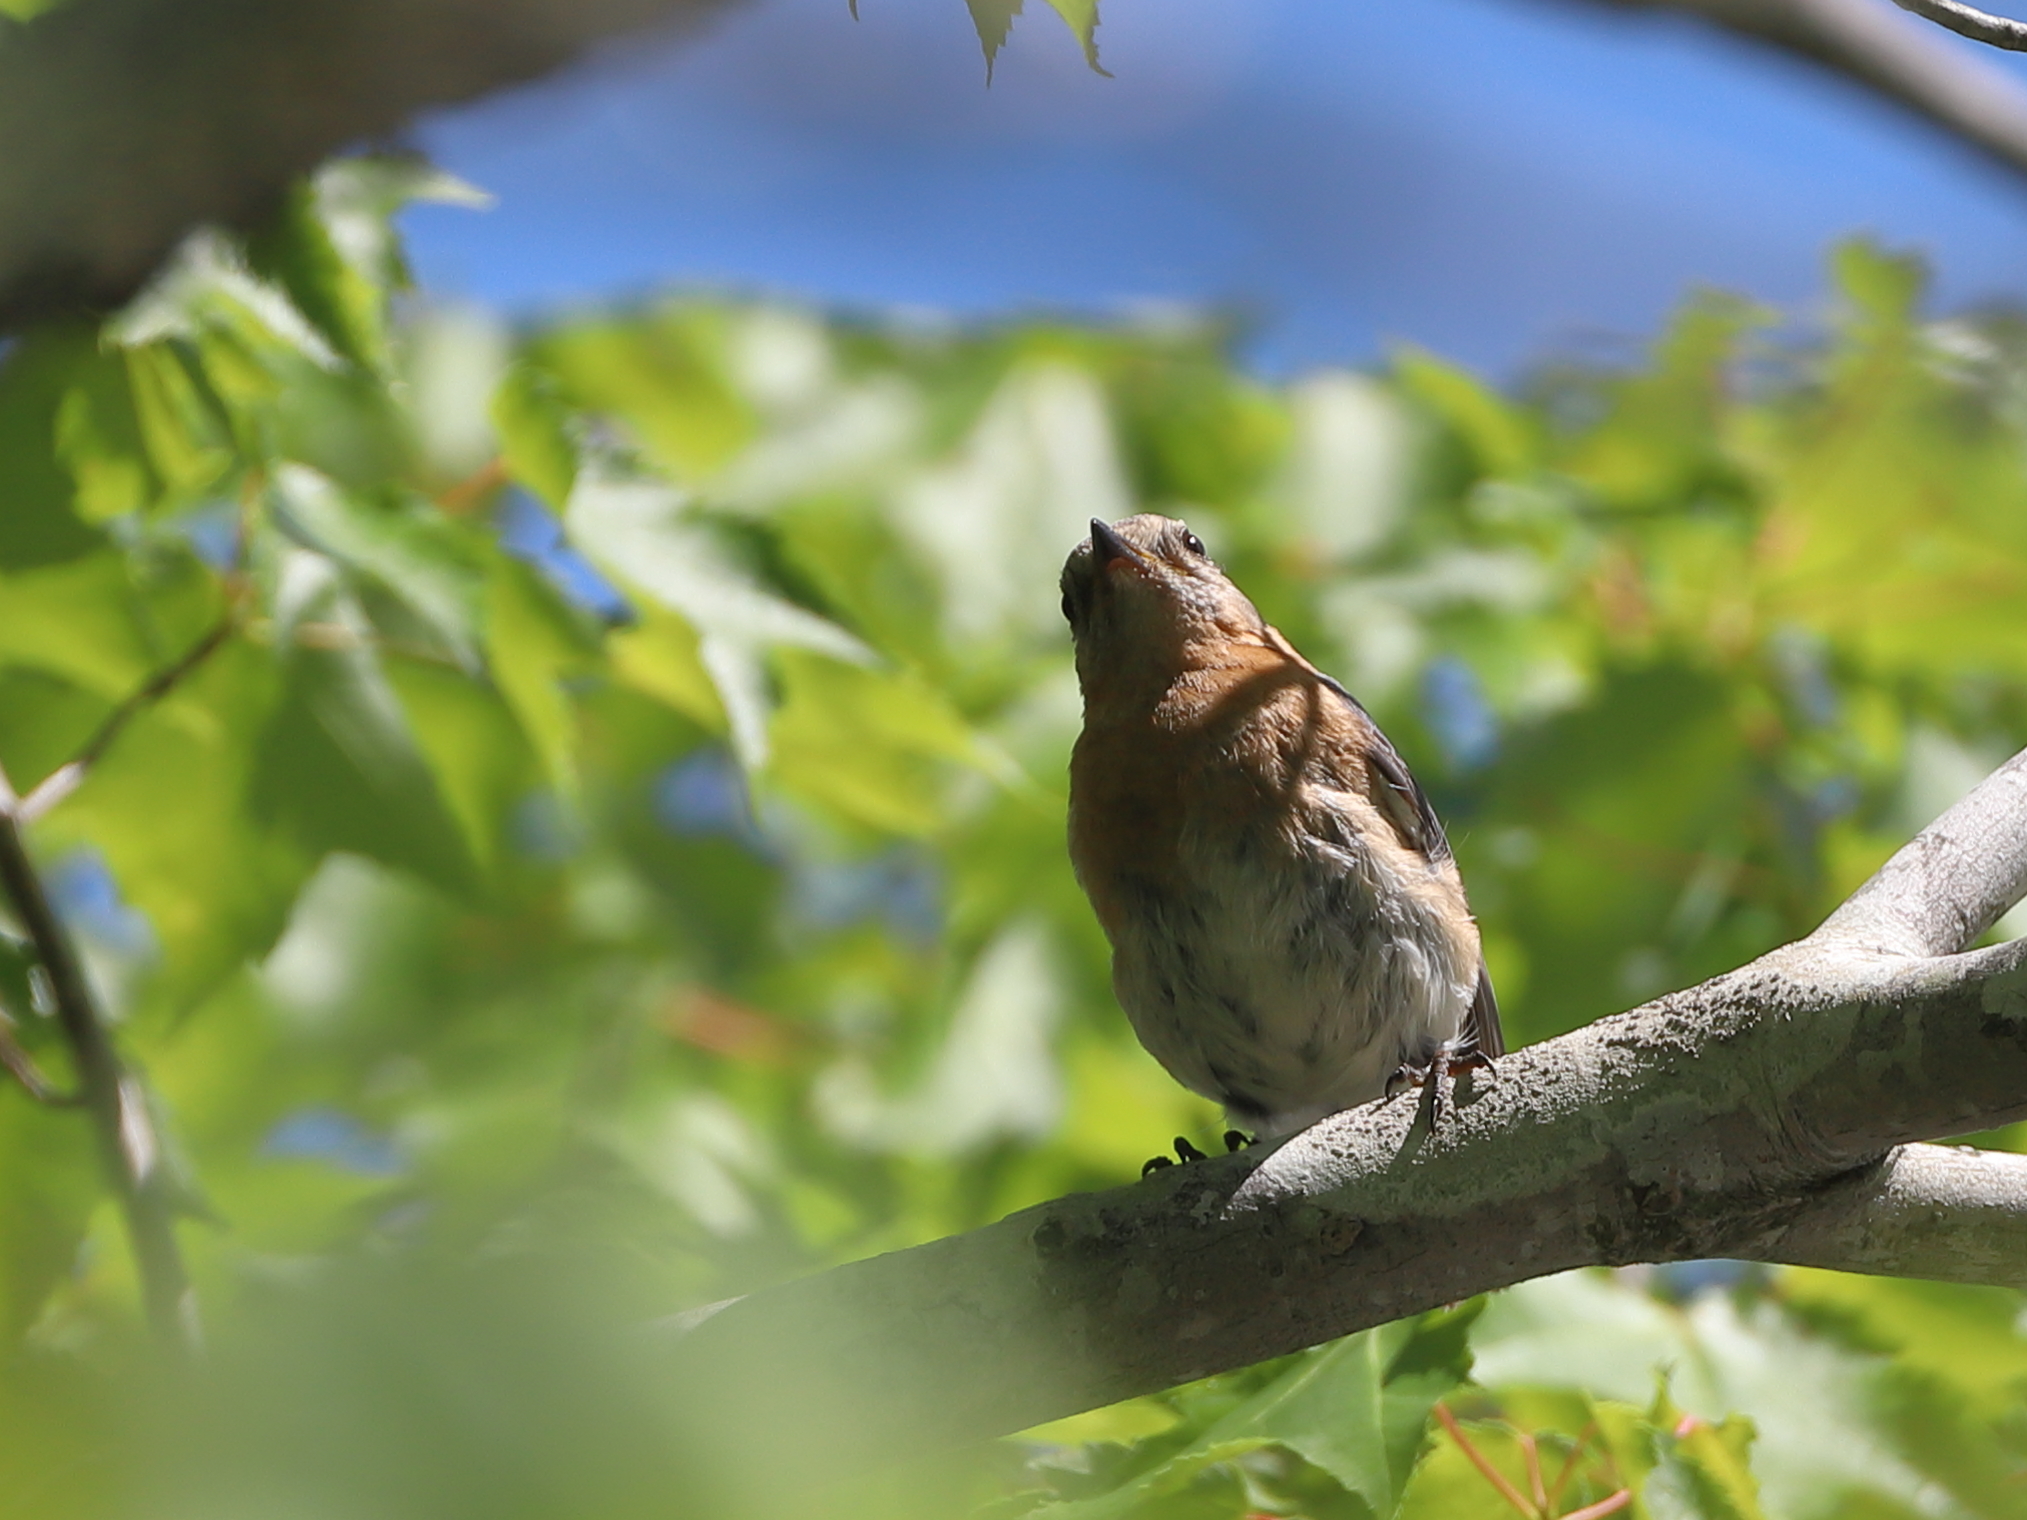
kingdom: Animalia
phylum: Chordata
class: Aves
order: Passeriformes
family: Turdidae
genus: Sialia
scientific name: Sialia sialis
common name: Eastern bluebird
